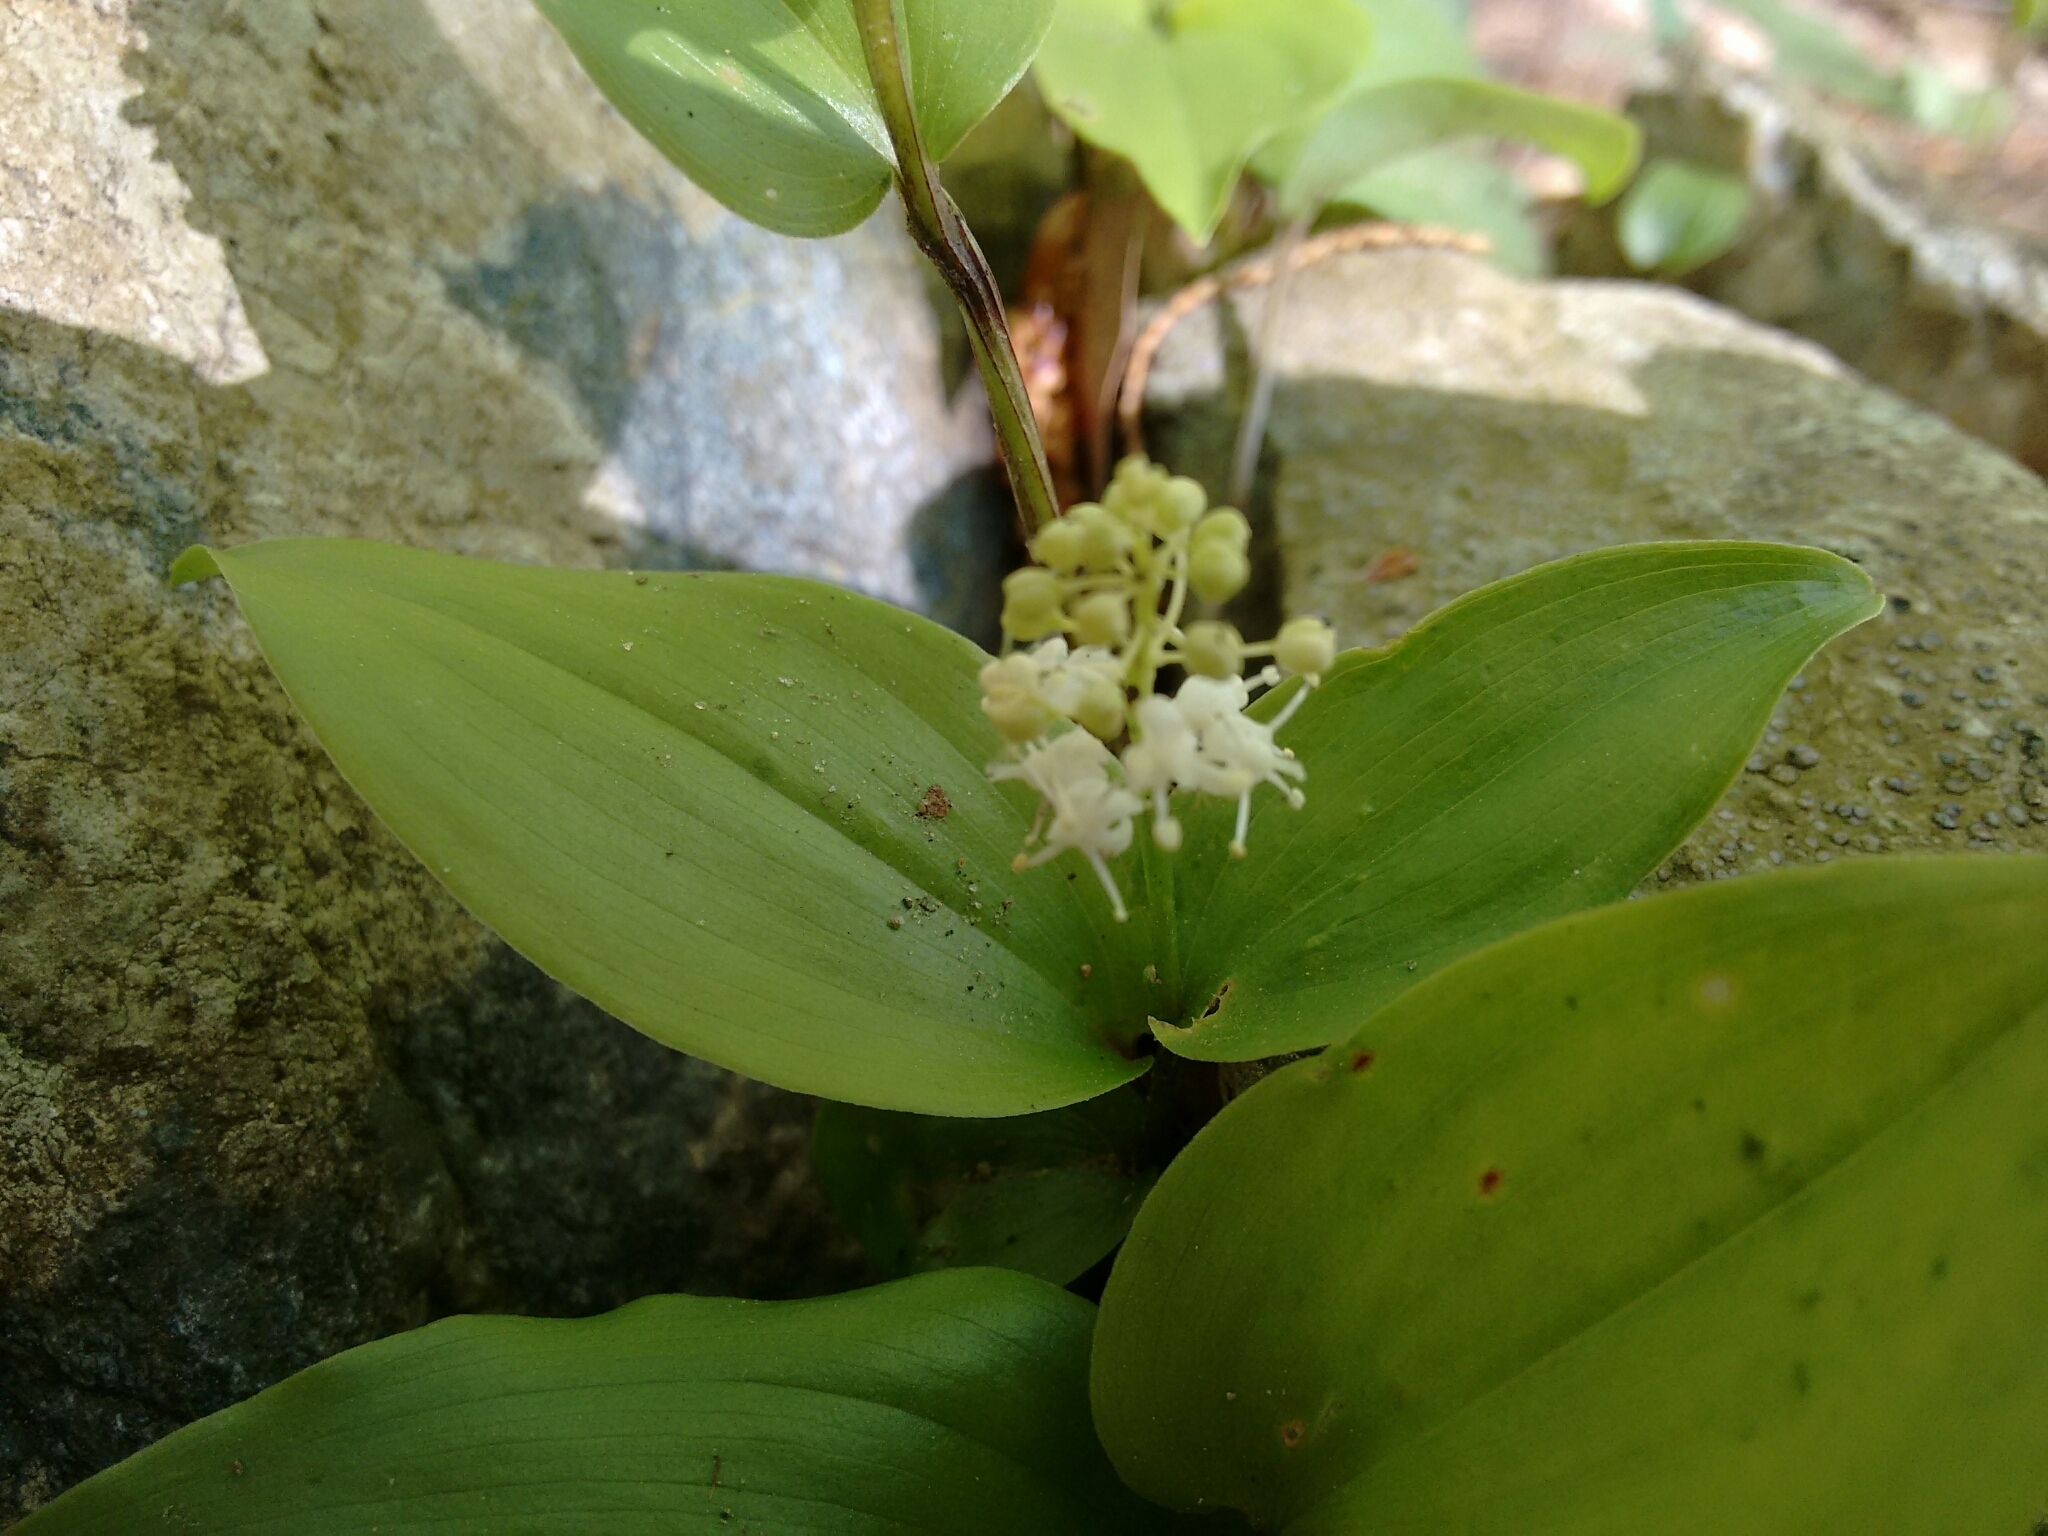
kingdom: Plantae
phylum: Tracheophyta
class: Liliopsida
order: Asparagales
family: Asparagaceae
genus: Maianthemum
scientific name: Maianthemum canadense
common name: False lily-of-the-valley
